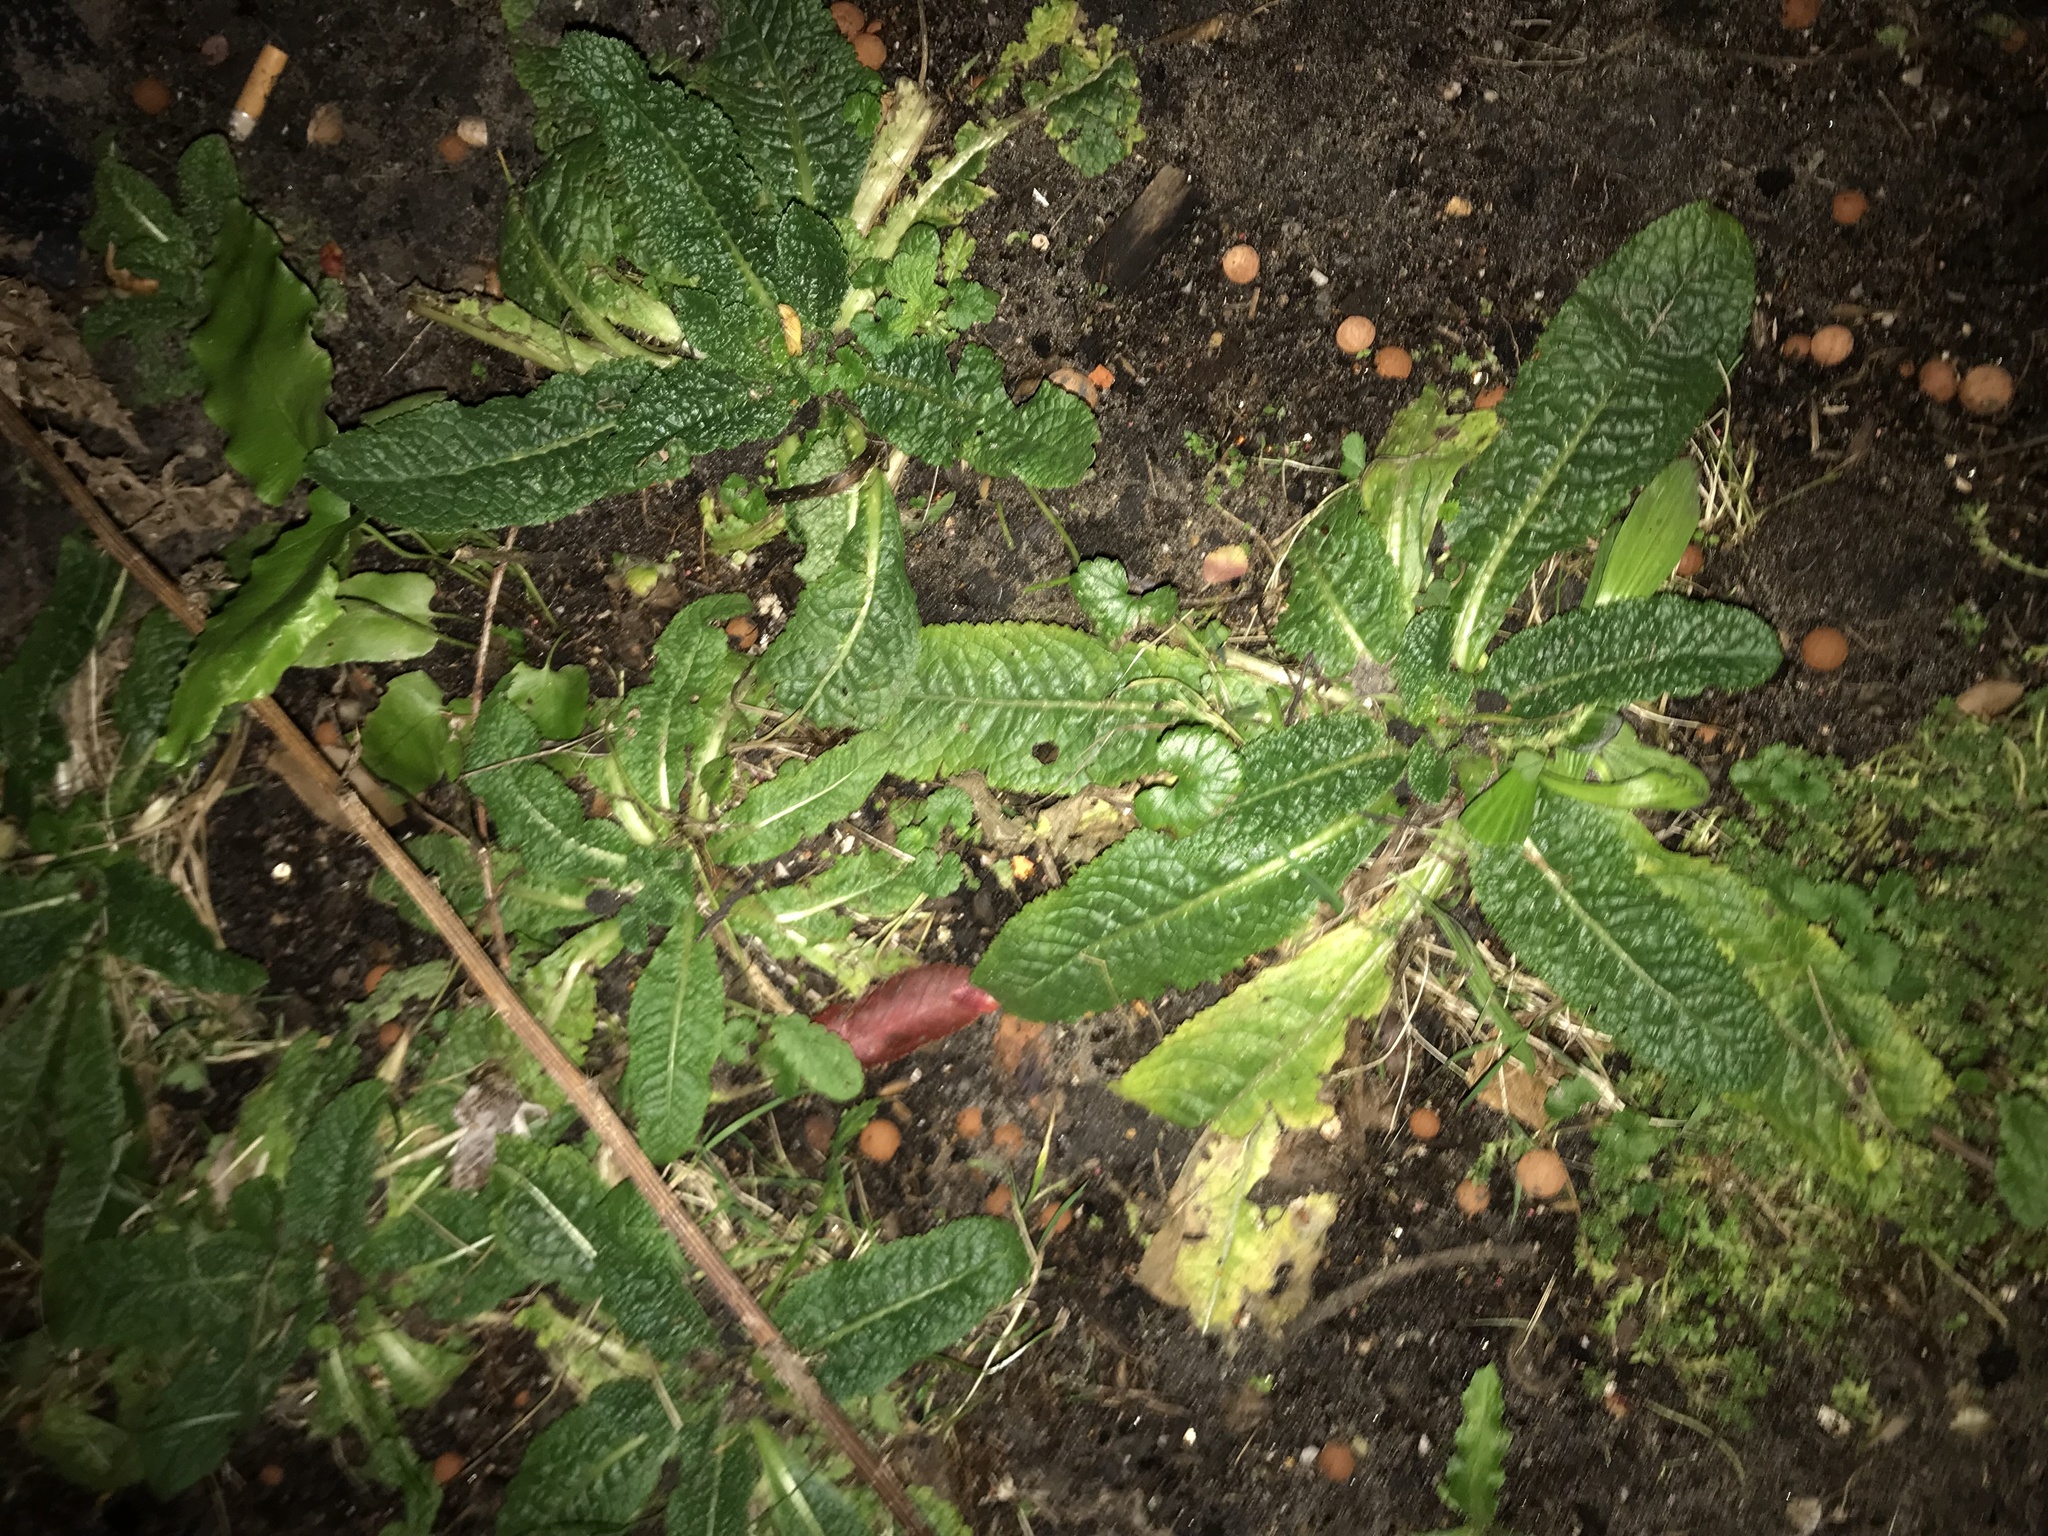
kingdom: Plantae
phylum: Tracheophyta
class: Magnoliopsida
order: Dipsacales
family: Caprifoliaceae
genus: Dipsacus
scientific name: Dipsacus fullonum
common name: Teasel
